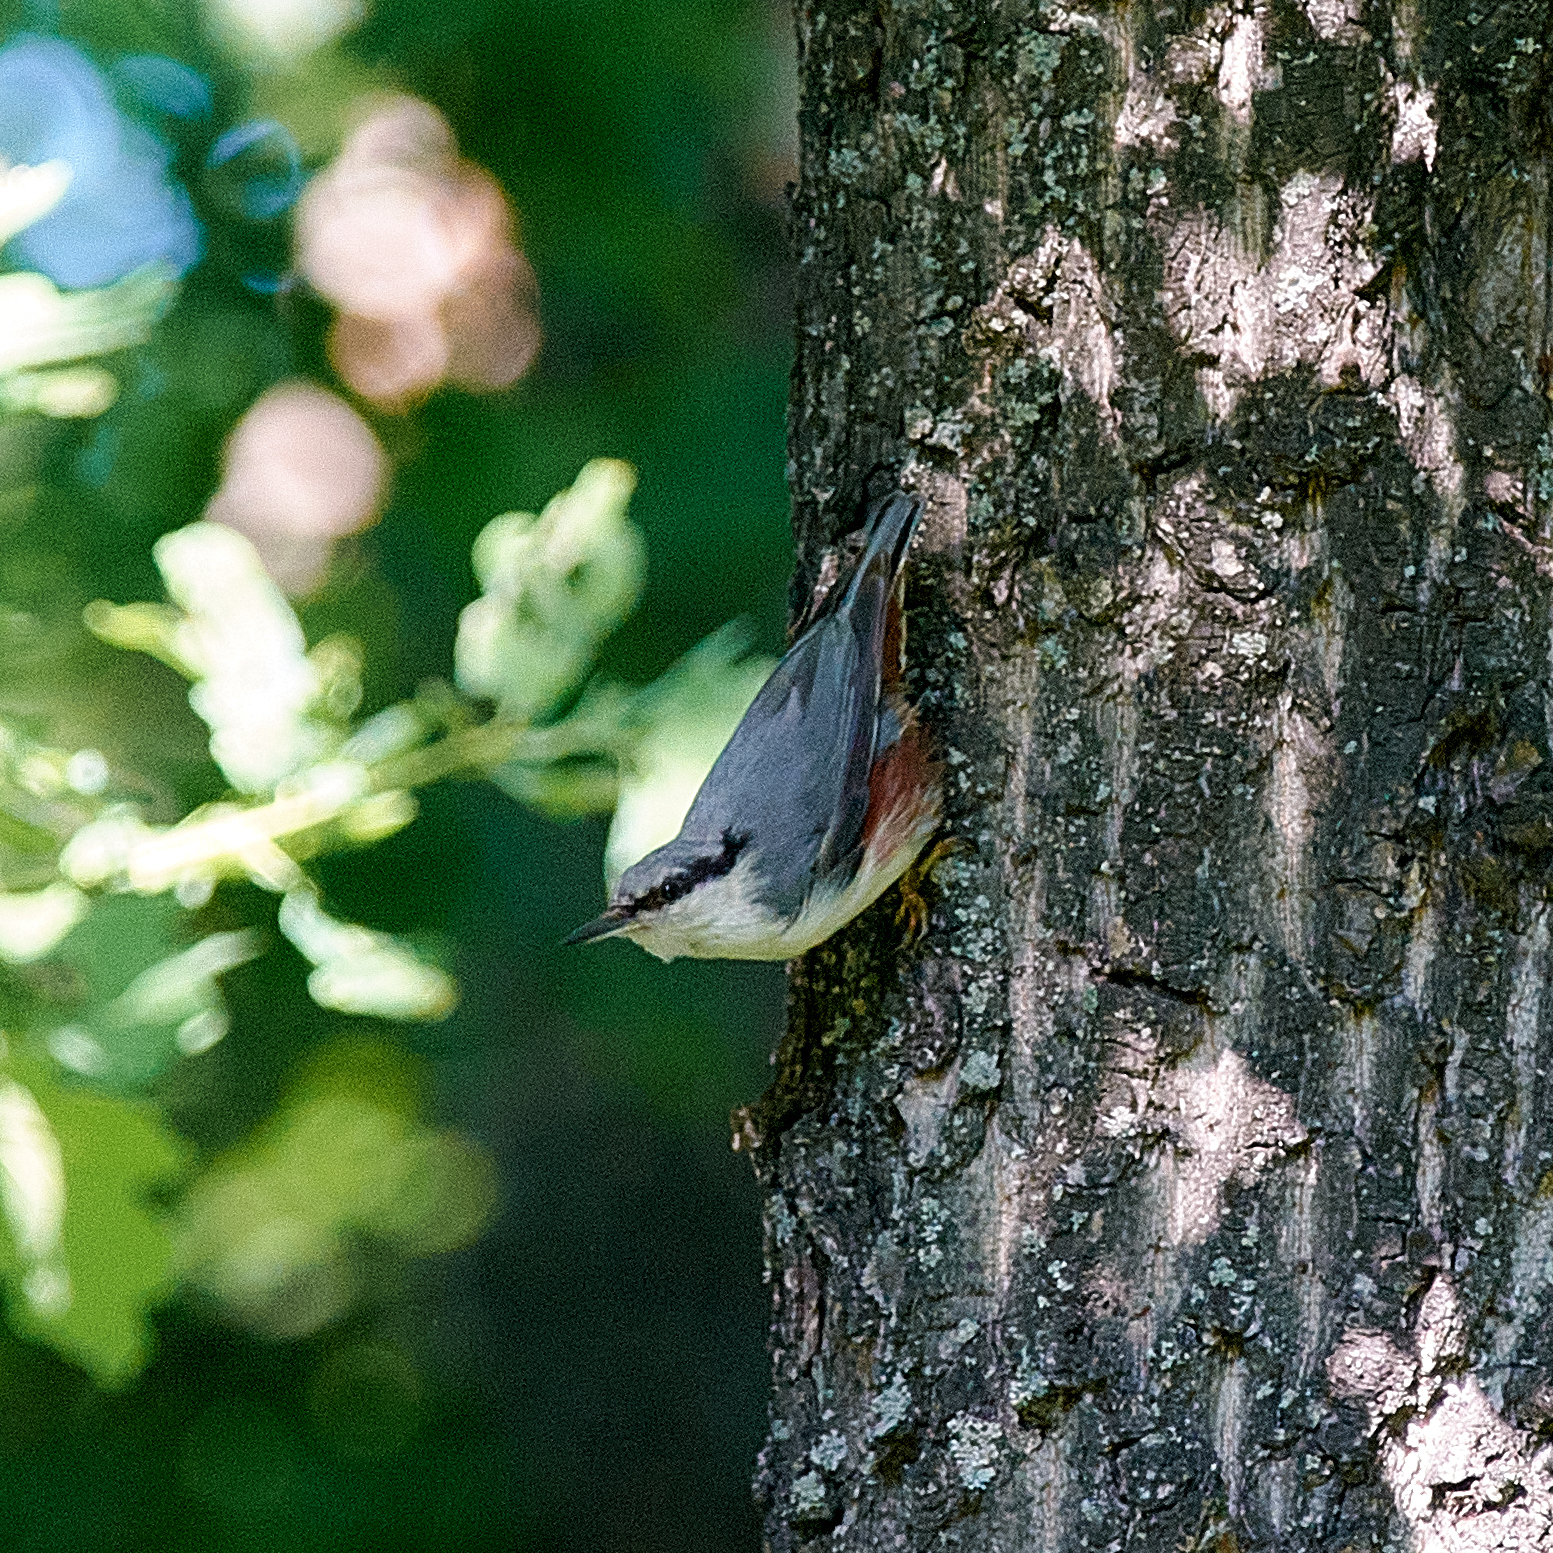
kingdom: Animalia
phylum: Chordata
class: Aves
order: Passeriformes
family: Sittidae
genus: Sitta
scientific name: Sitta europaea
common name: Eurasian nuthatch
